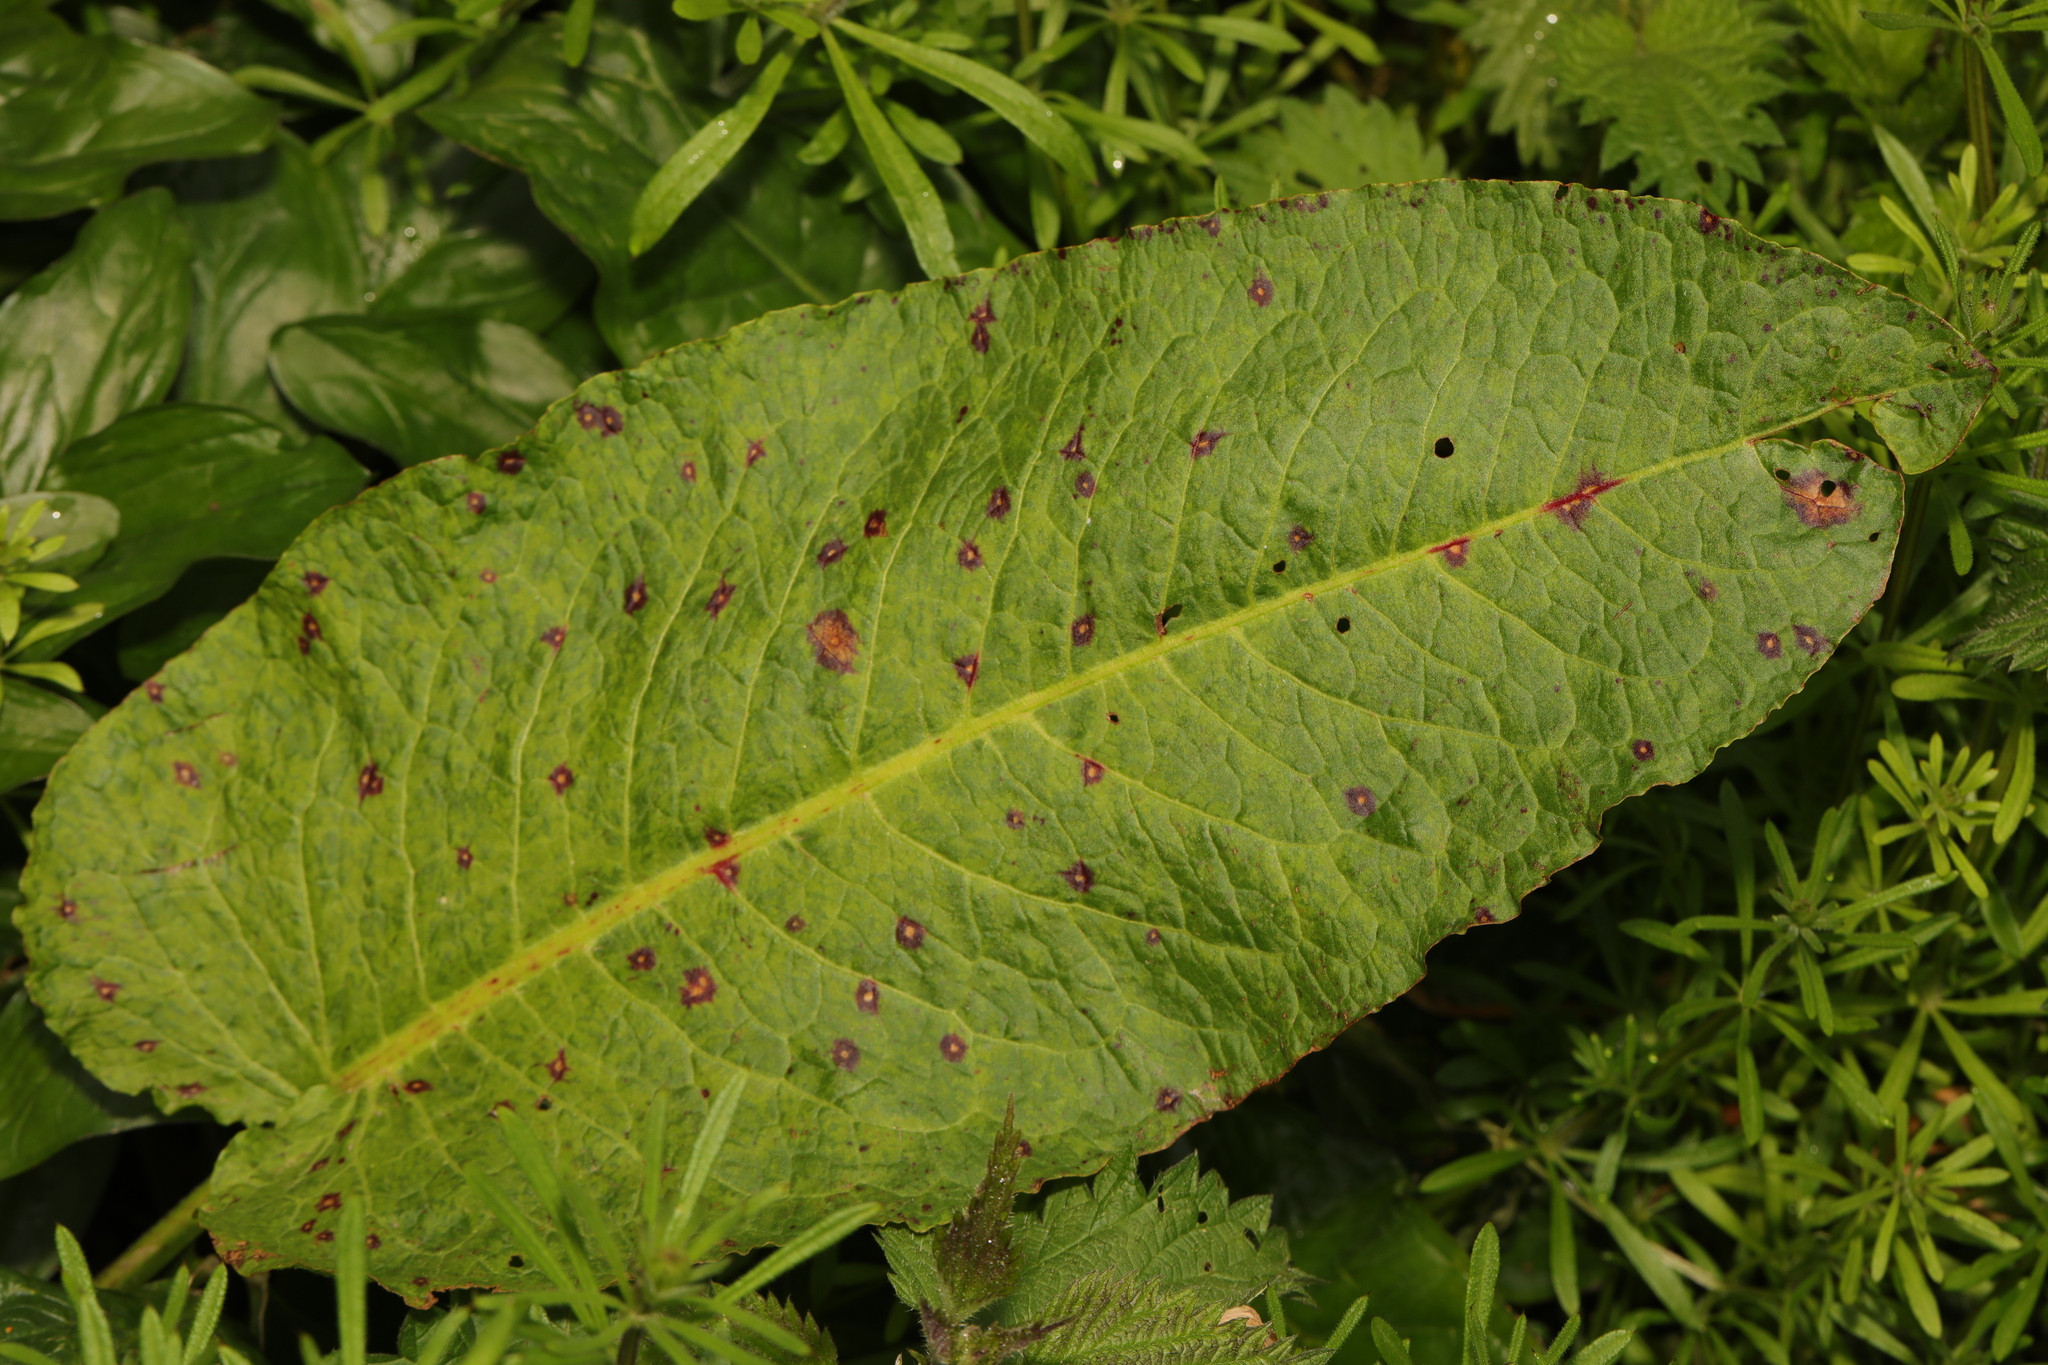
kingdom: Plantae
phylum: Tracheophyta
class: Magnoliopsida
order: Caryophyllales
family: Polygonaceae
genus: Rumex
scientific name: Rumex obtusifolius
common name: Bitter dock
